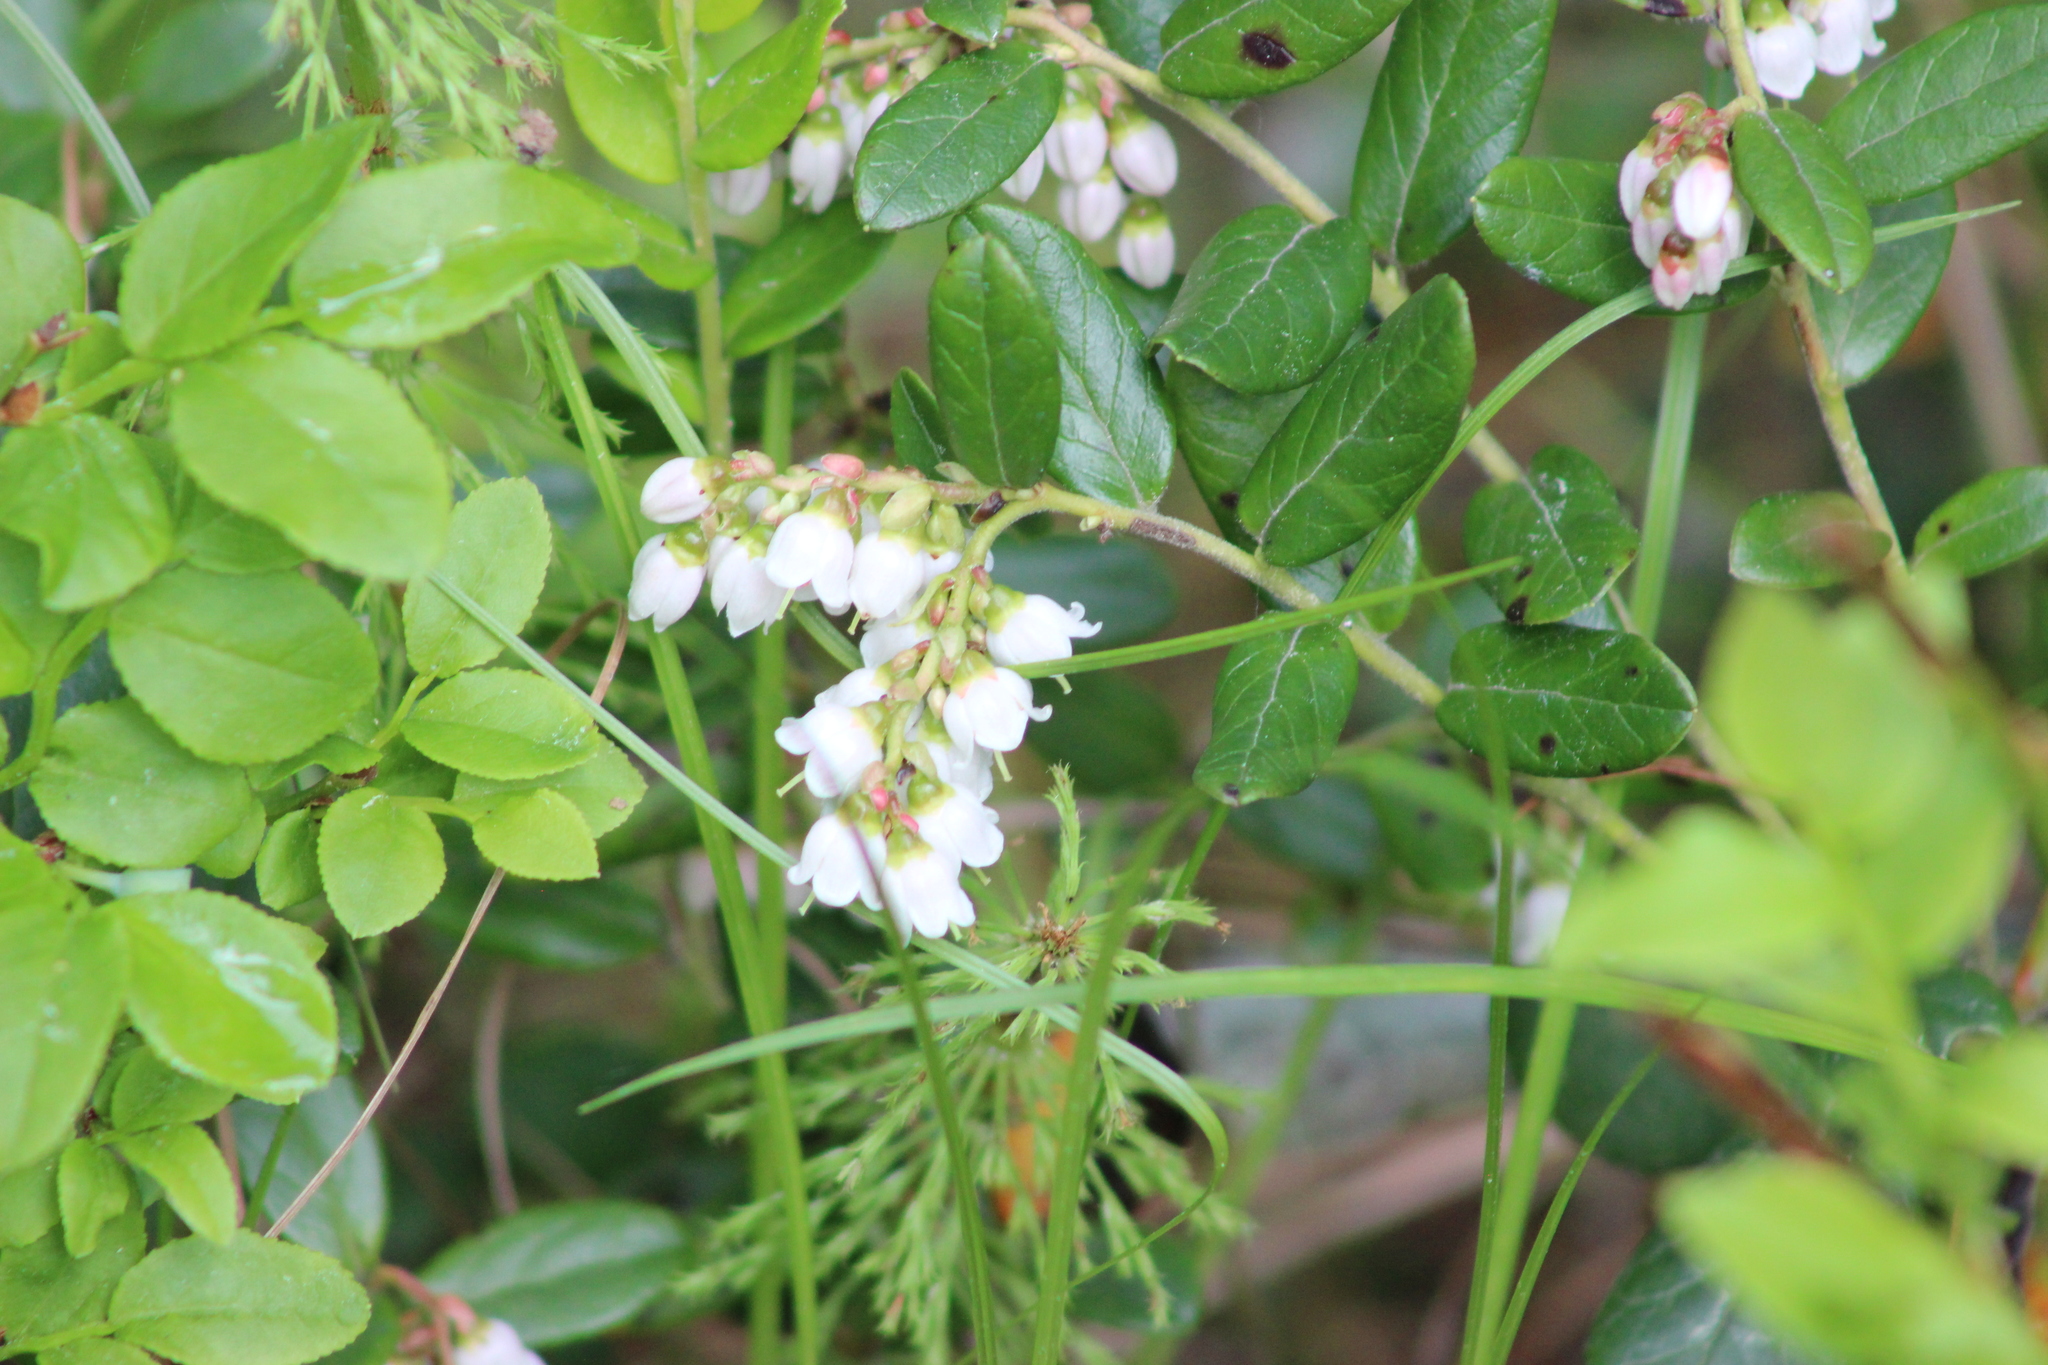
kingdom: Plantae
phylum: Tracheophyta
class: Magnoliopsida
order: Ericales
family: Ericaceae
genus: Vaccinium
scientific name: Vaccinium vitis-idaea
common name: Cowberry
